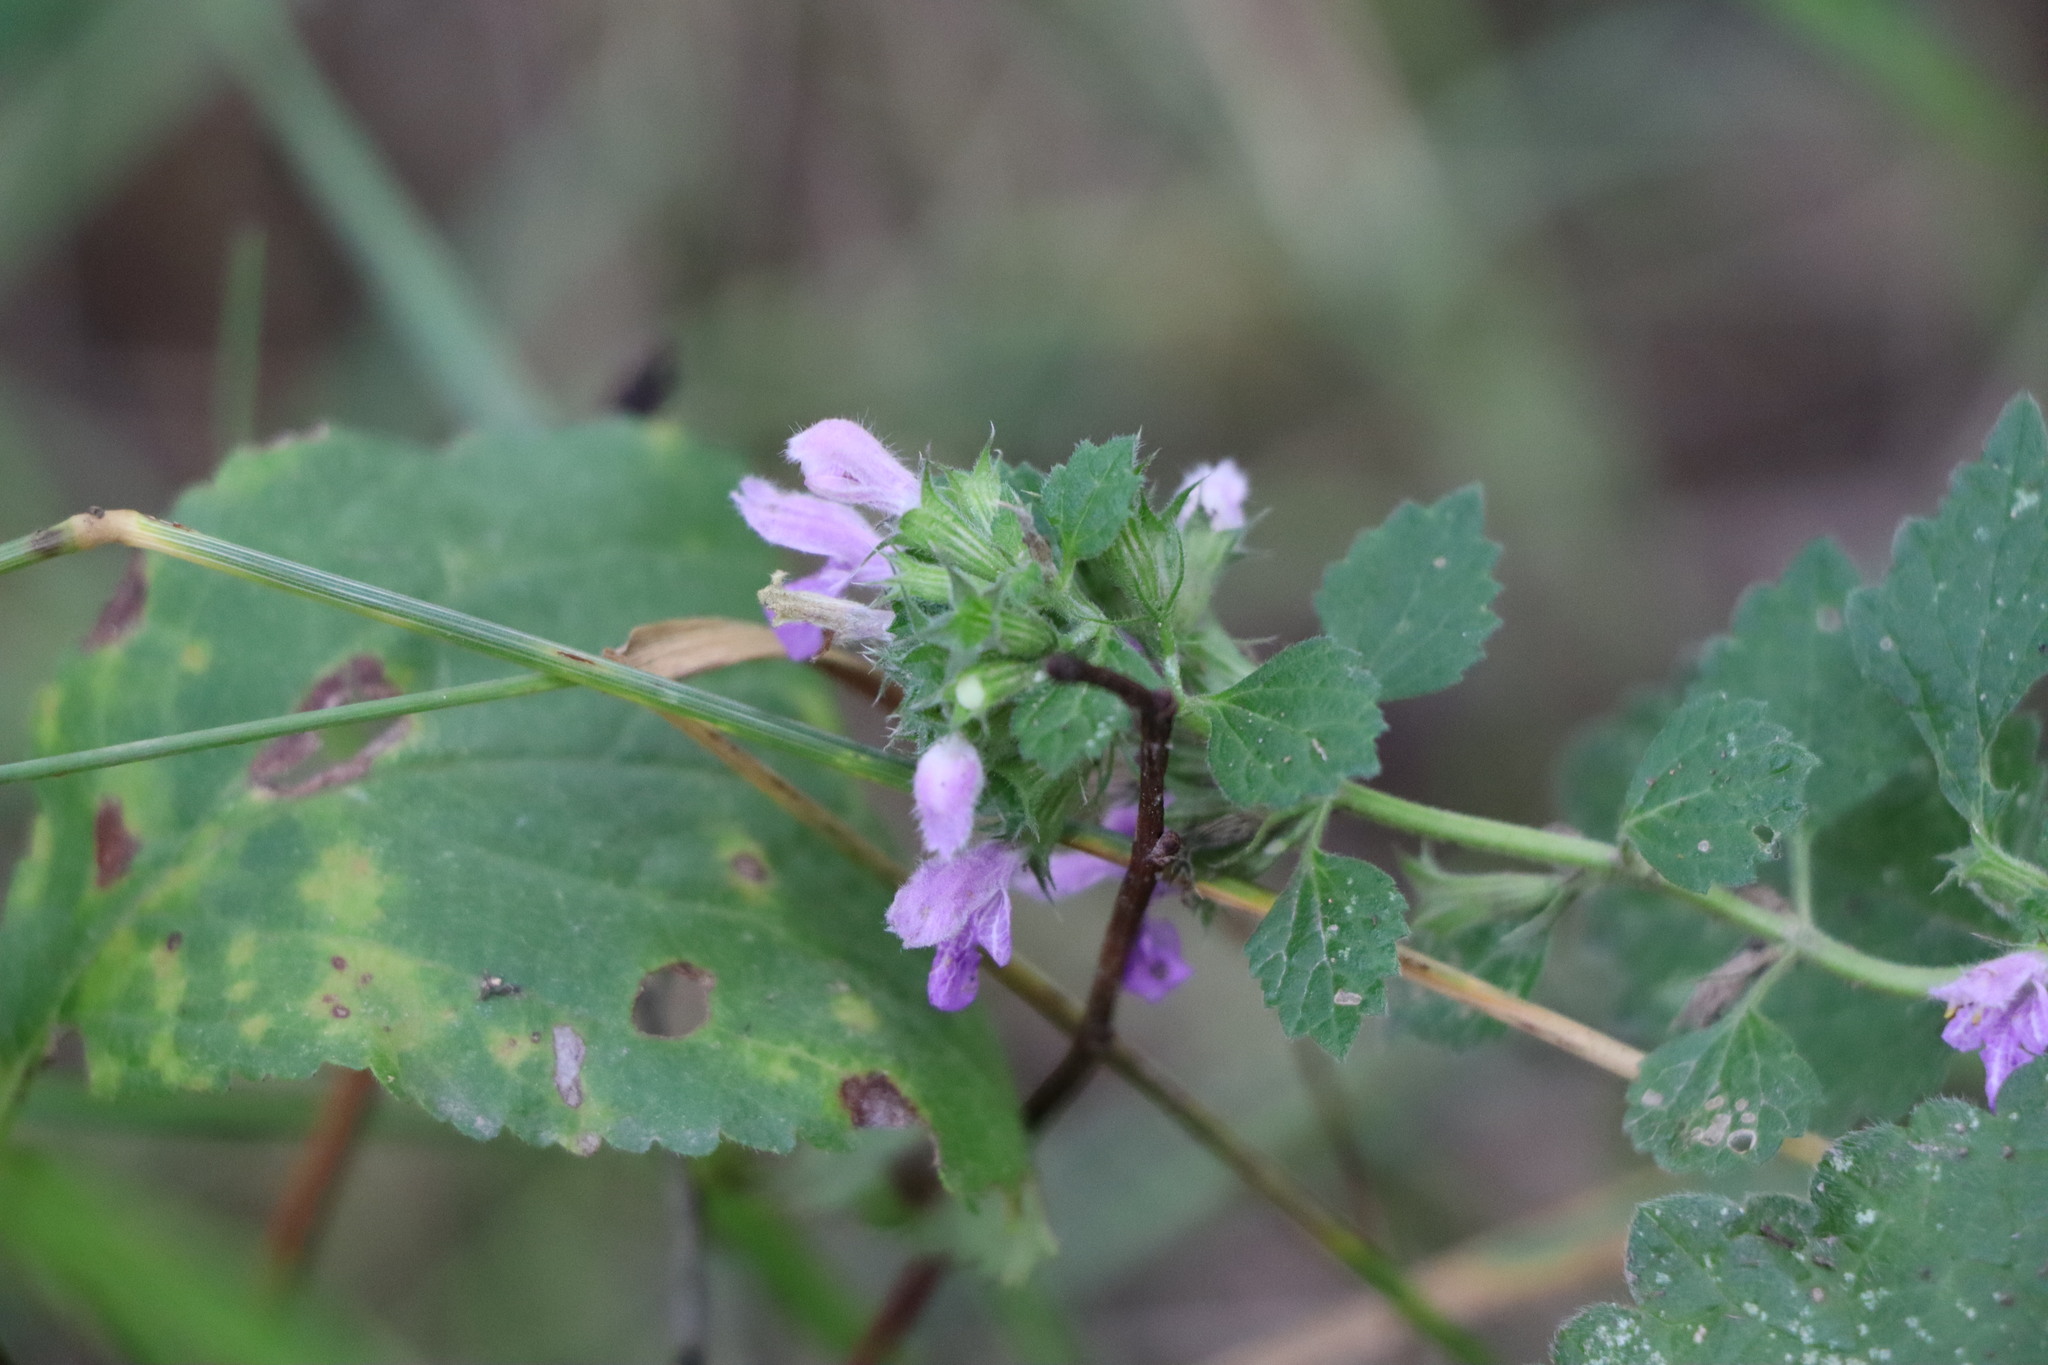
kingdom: Plantae
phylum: Tracheophyta
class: Magnoliopsida
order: Lamiales
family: Lamiaceae
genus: Ballota
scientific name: Ballota nigra
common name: Black horehound
